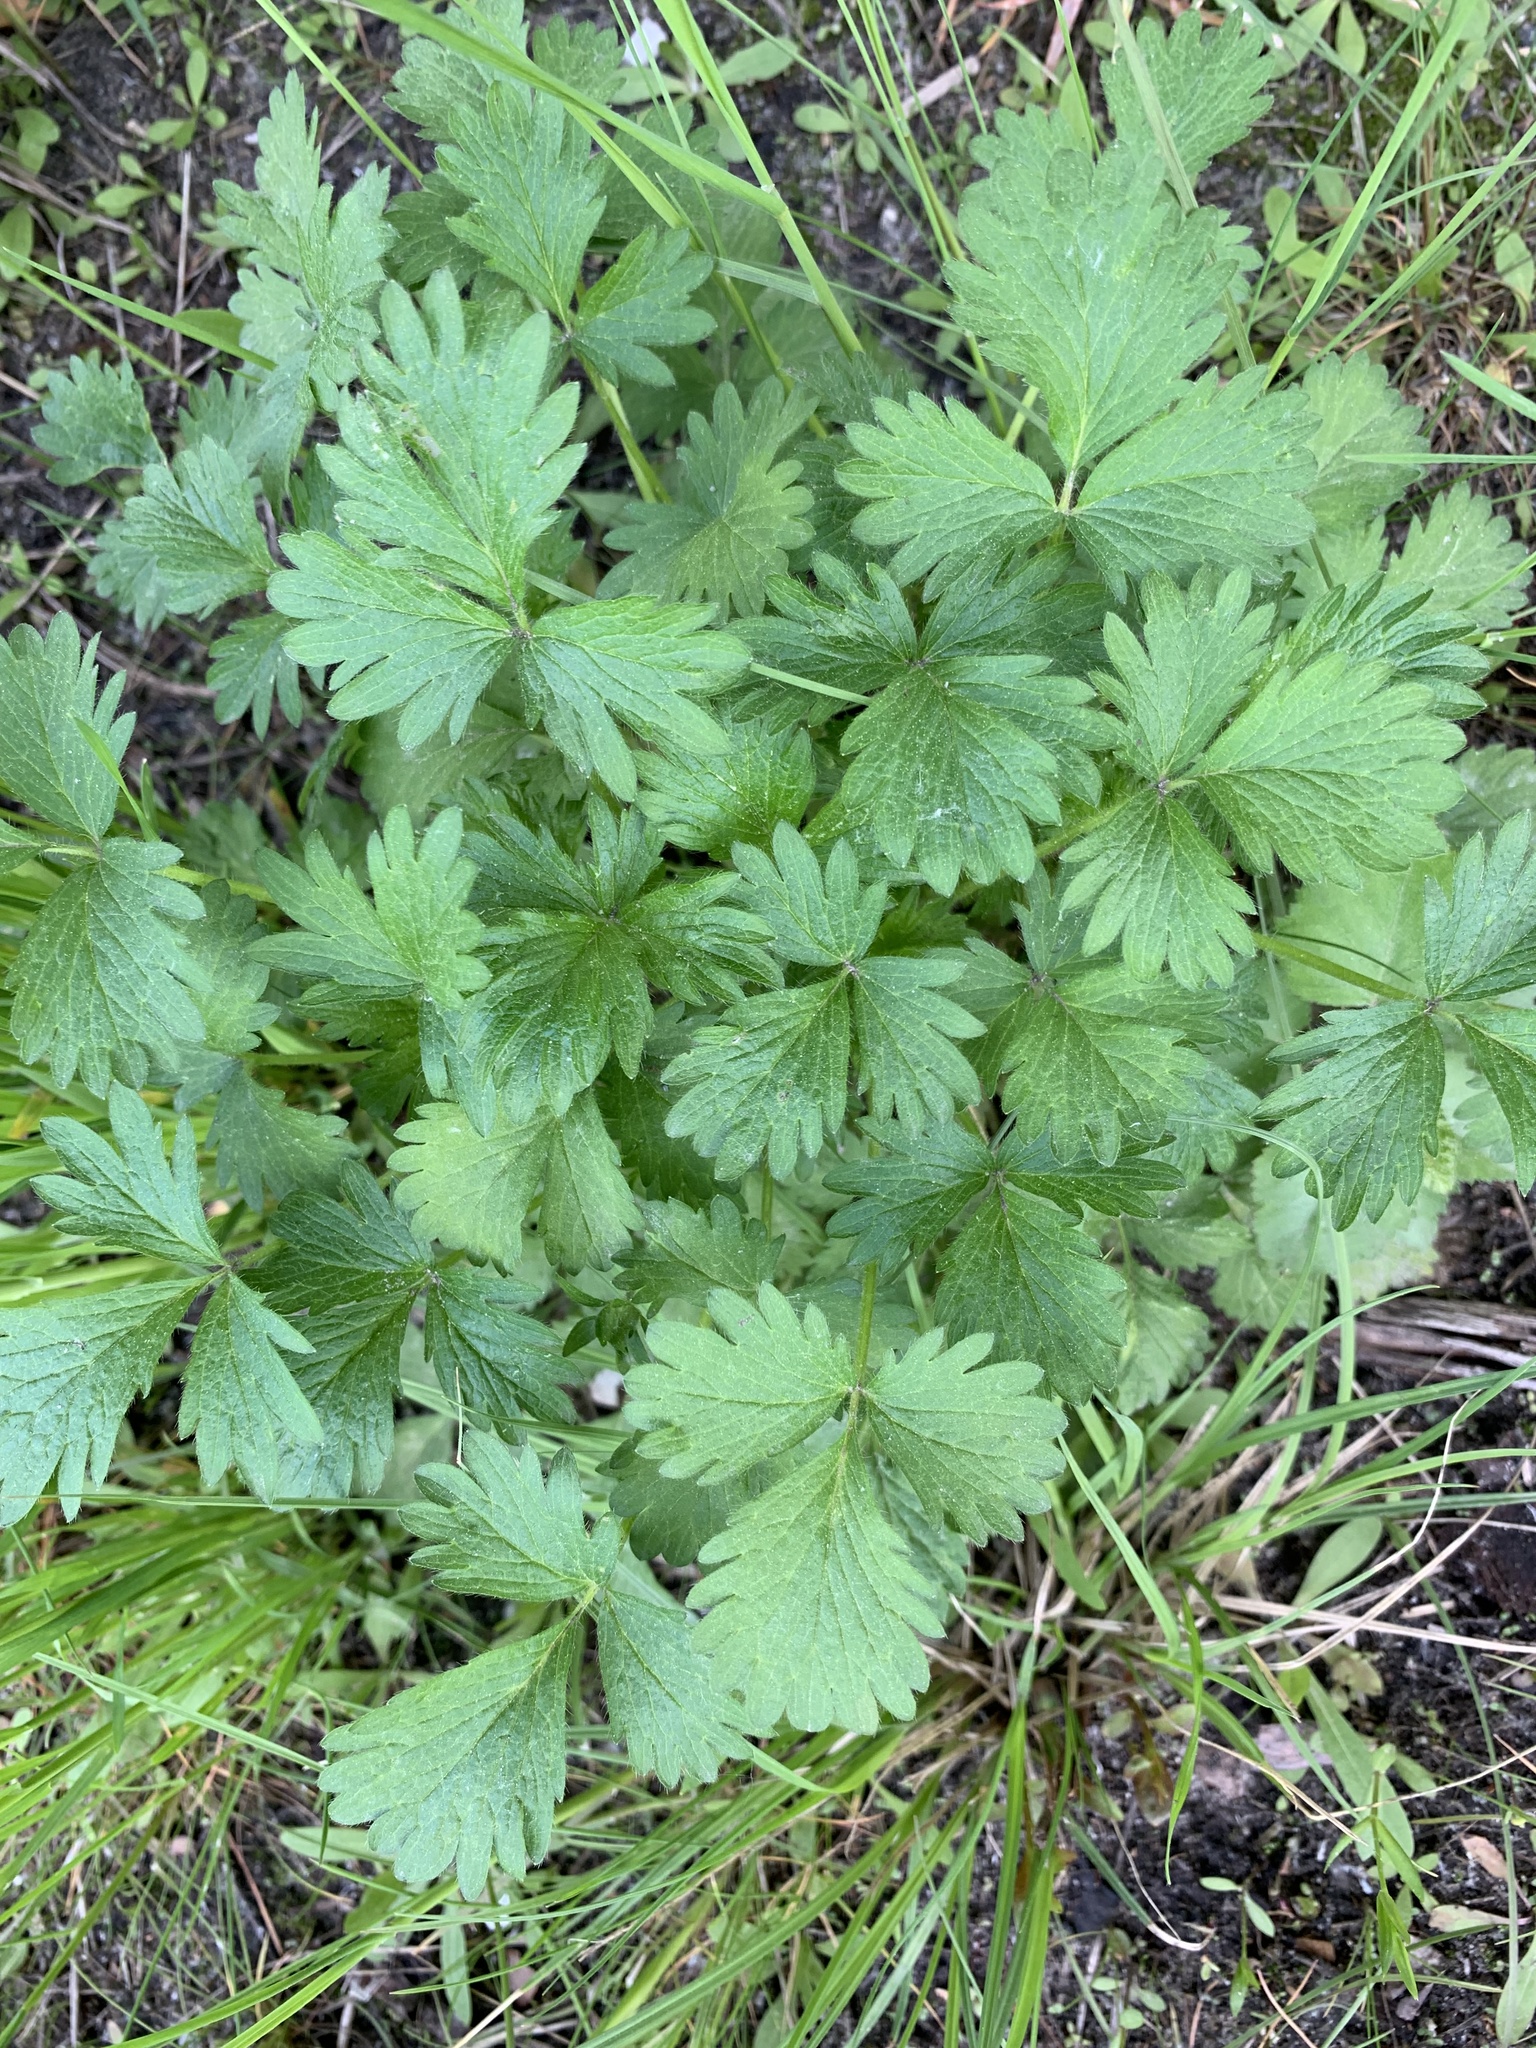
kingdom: Plantae
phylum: Tracheophyta
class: Magnoliopsida
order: Rosales
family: Rosaceae
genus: Potentilla
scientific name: Potentilla norvegica
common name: Ternate-leaved cinquefoil
